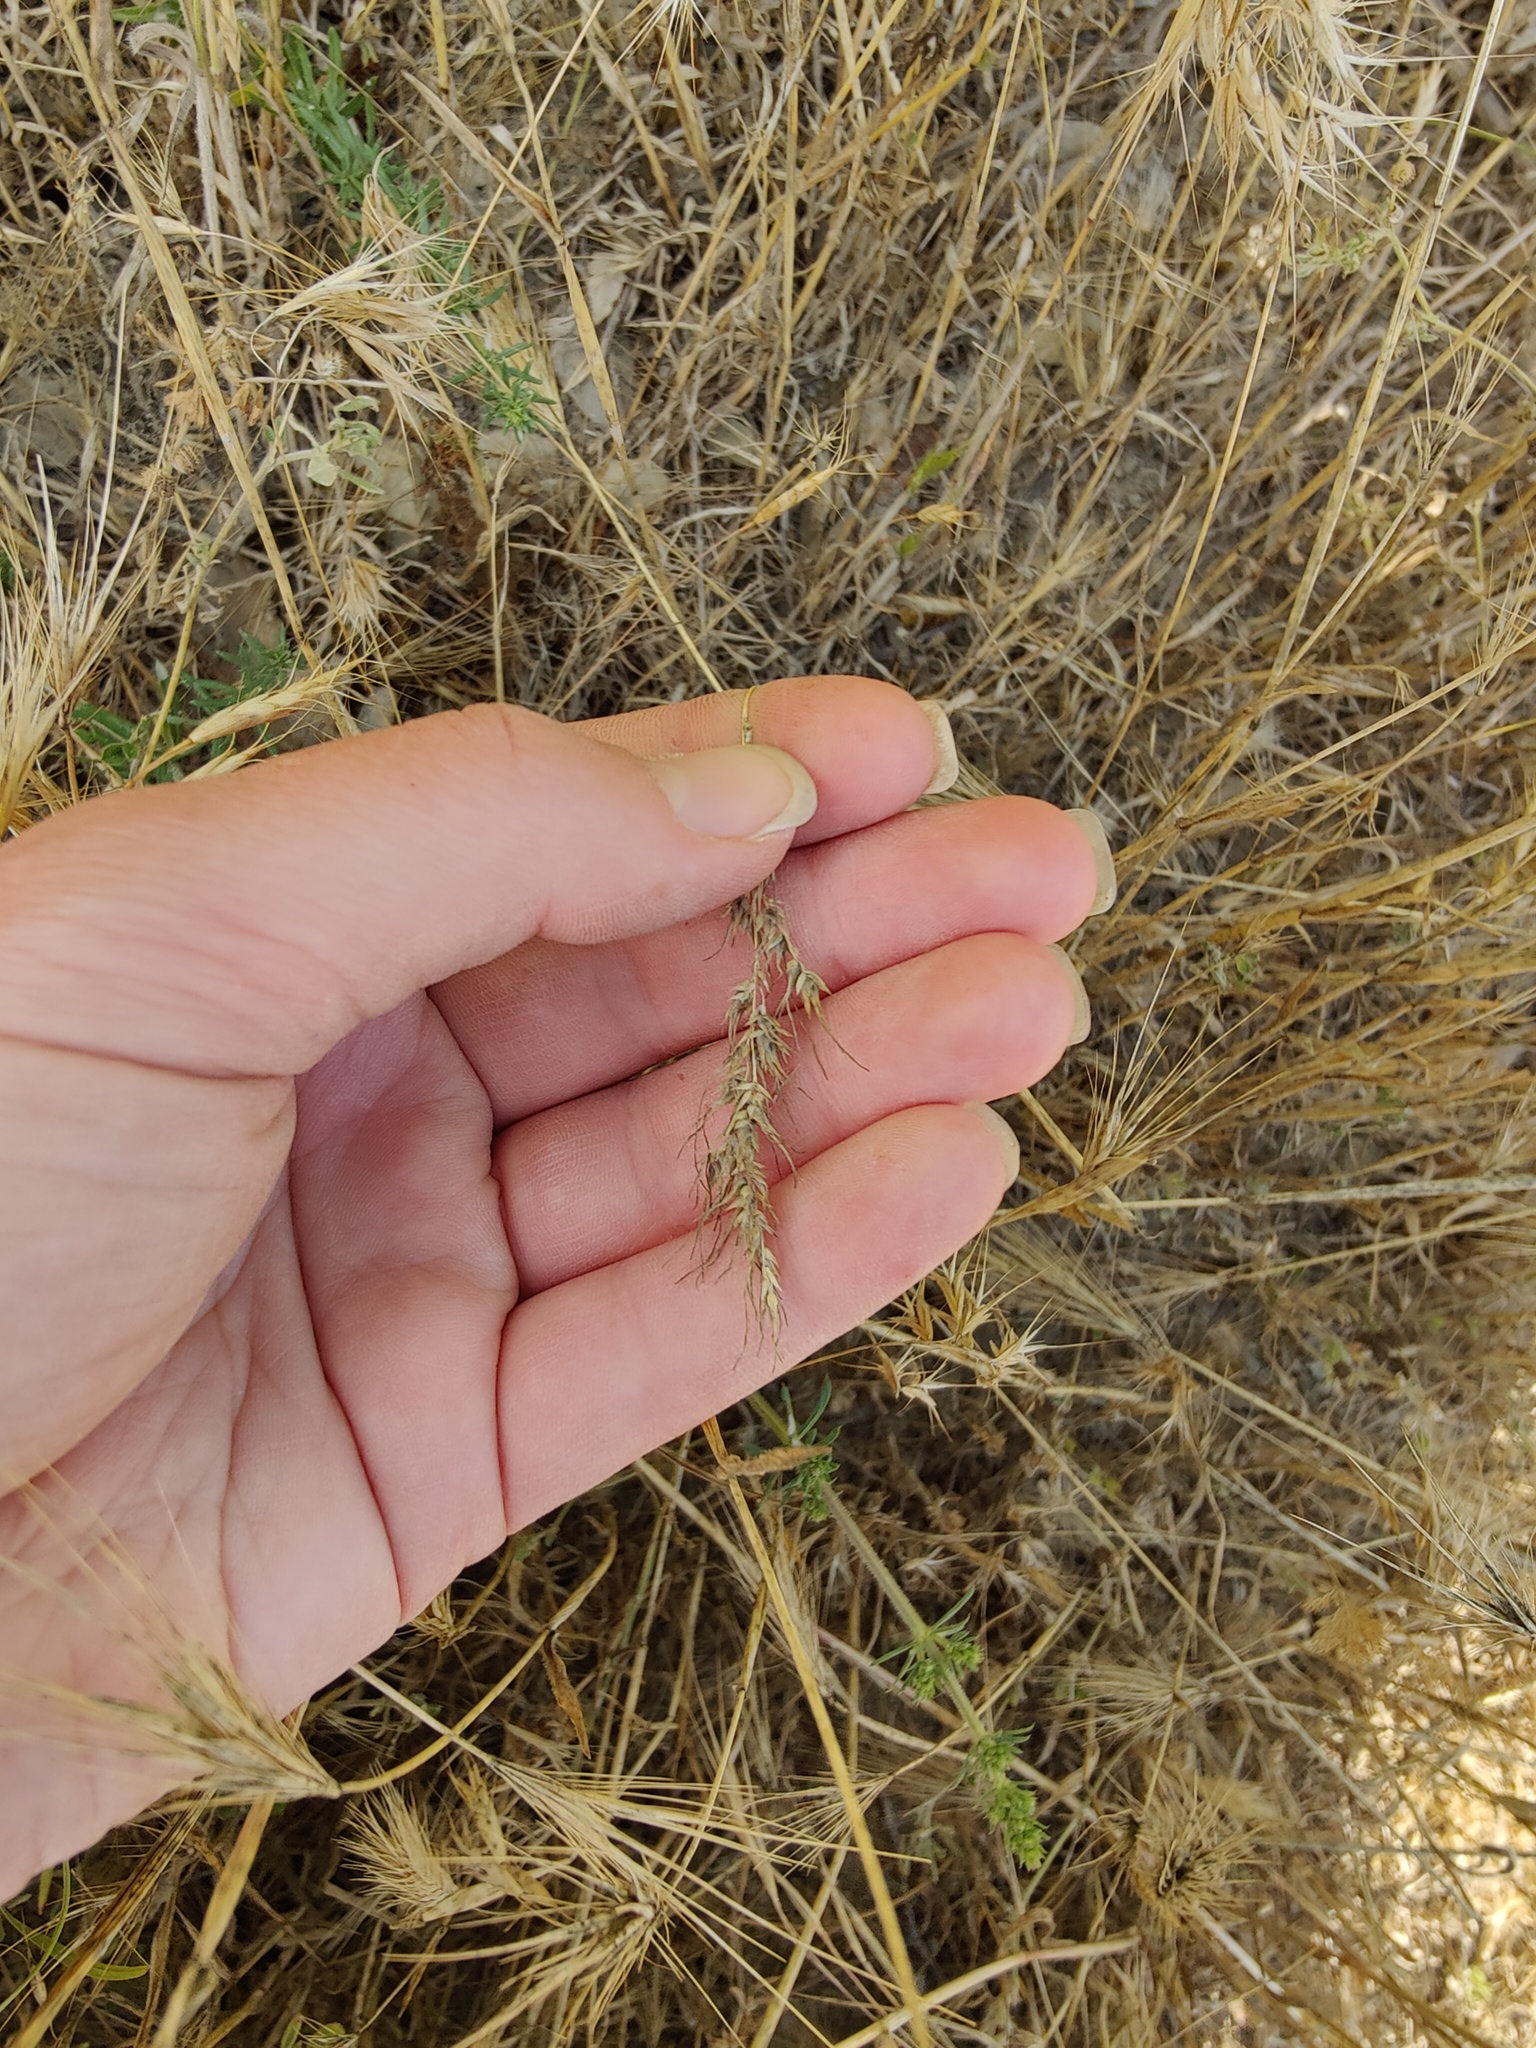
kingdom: Plantae
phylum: Tracheophyta
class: Liliopsida
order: Poales
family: Poaceae
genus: Poa
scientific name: Poa bulbosa
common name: Bulbous bluegrass
